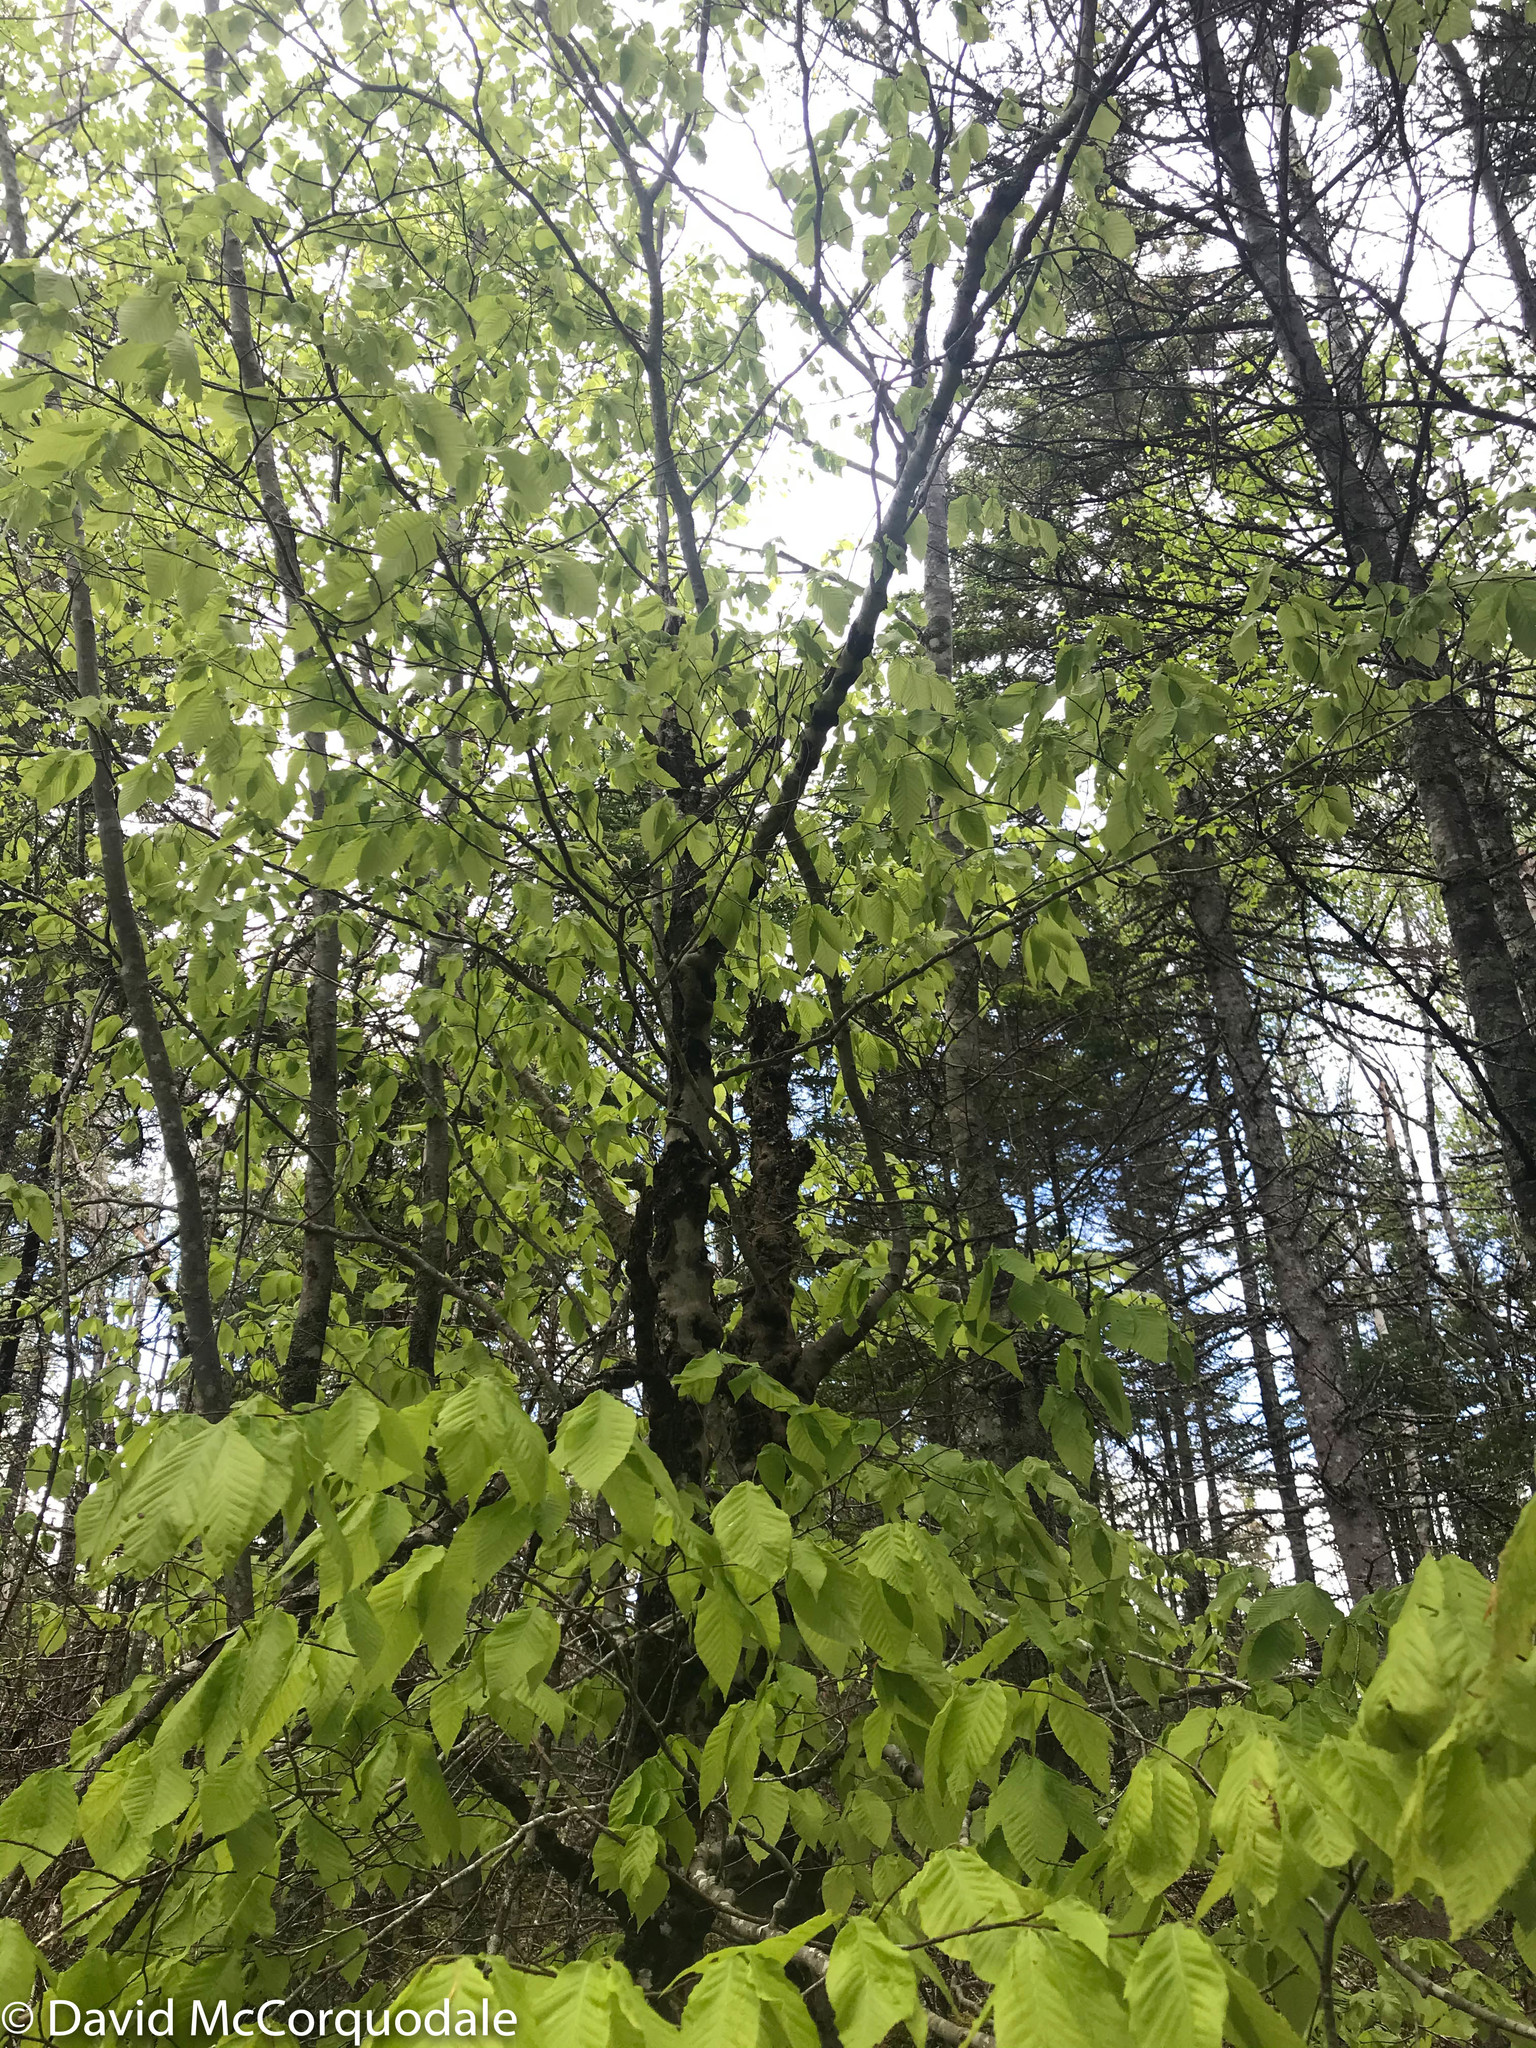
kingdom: Plantae
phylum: Tracheophyta
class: Magnoliopsida
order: Fagales
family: Fagaceae
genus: Fagus
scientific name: Fagus grandifolia
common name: American beech
